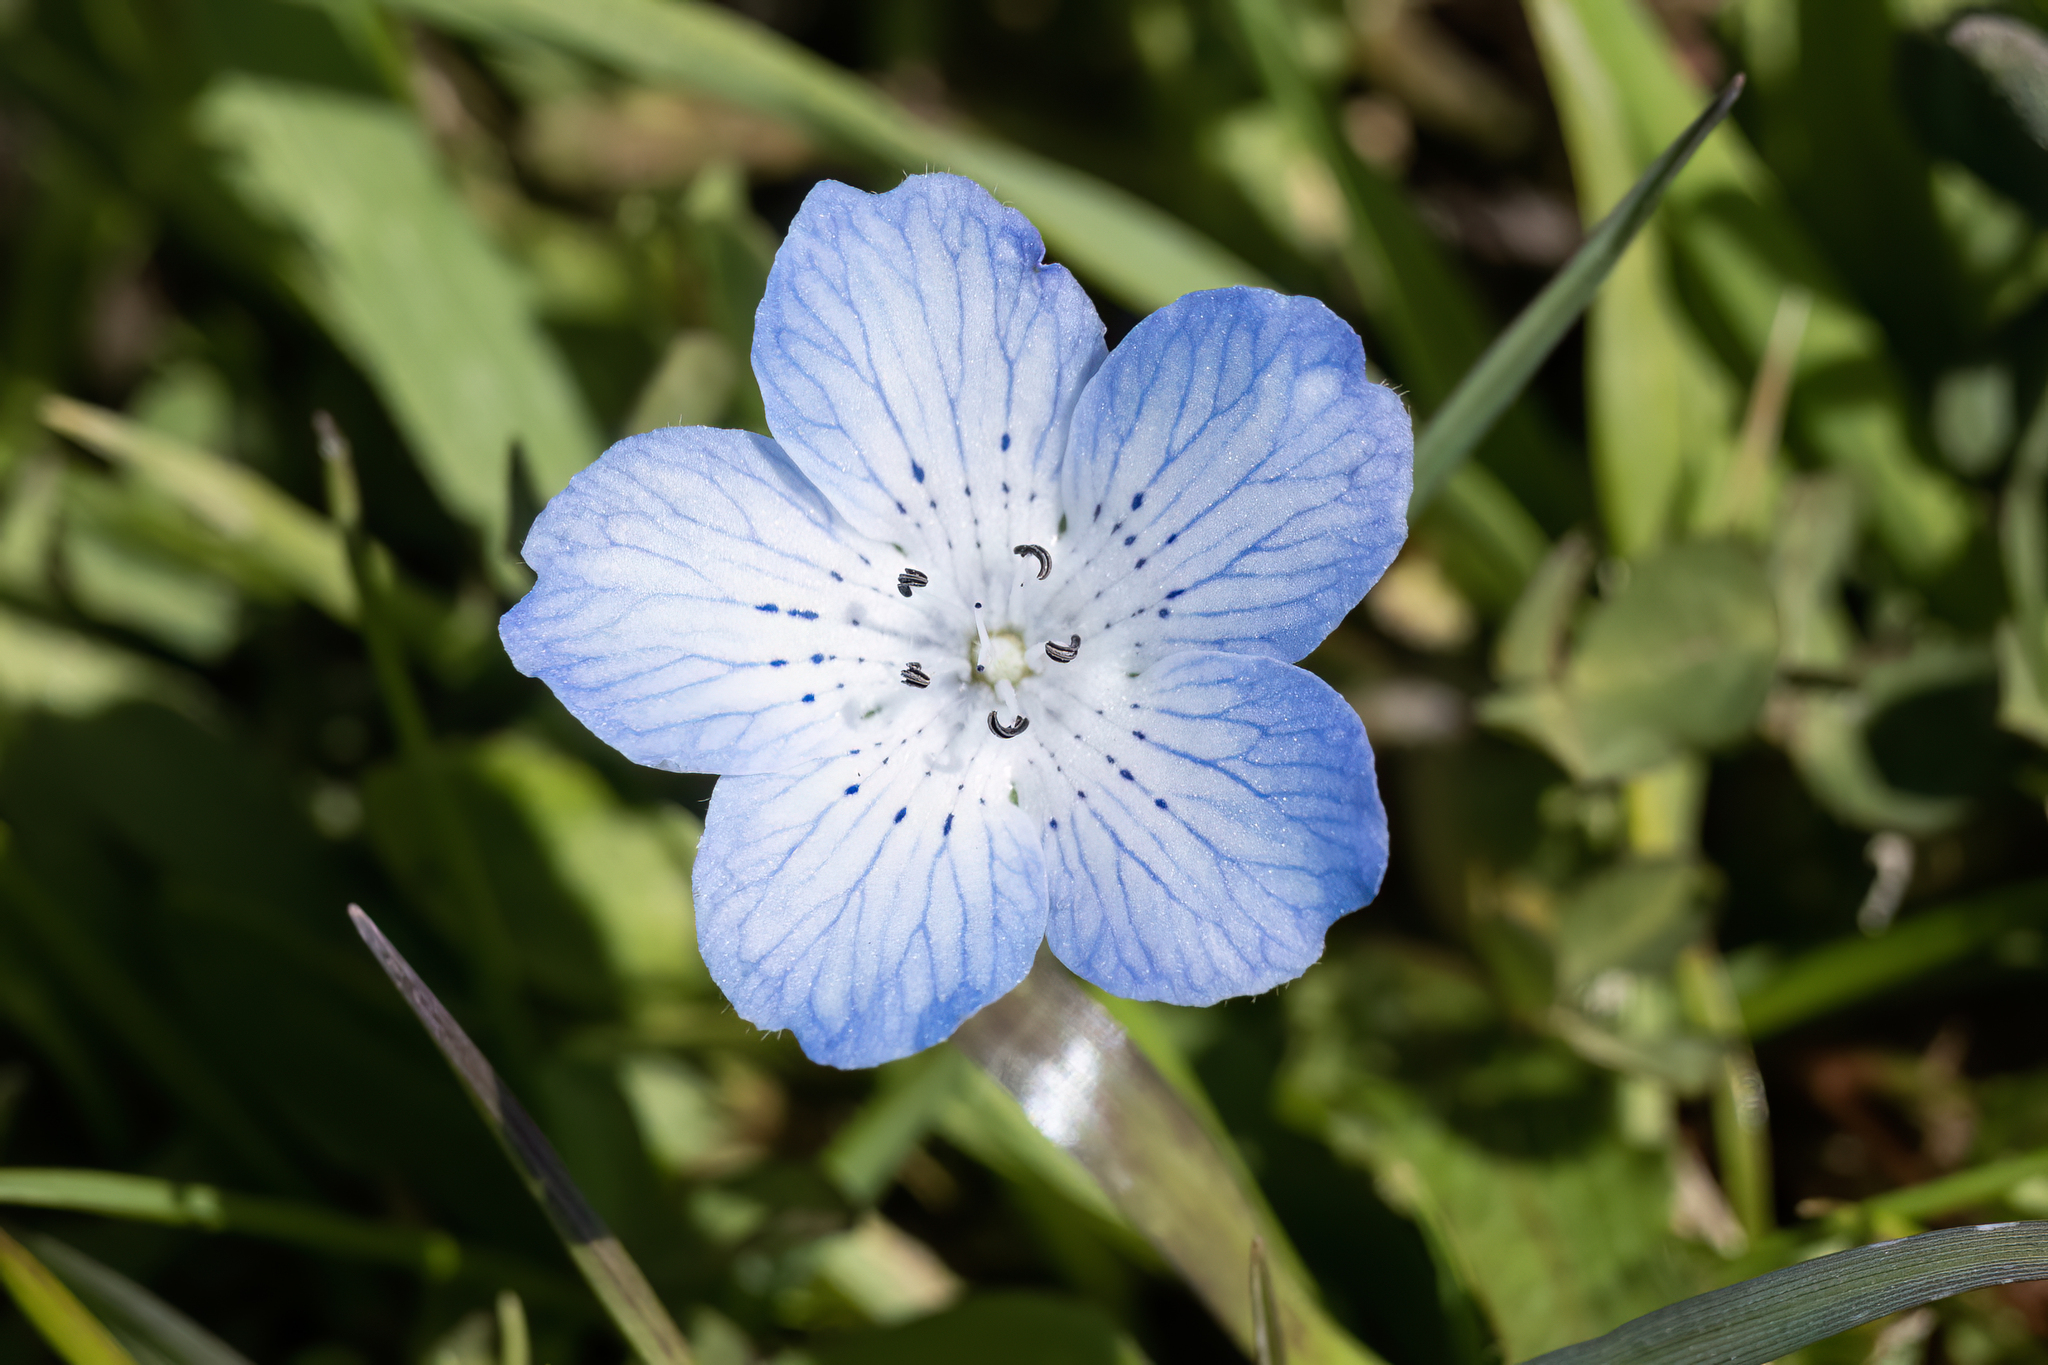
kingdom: Plantae
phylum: Tracheophyta
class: Magnoliopsida
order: Boraginales
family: Hydrophyllaceae
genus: Nemophila
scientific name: Nemophila menziesii
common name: Baby's-blue-eyes
